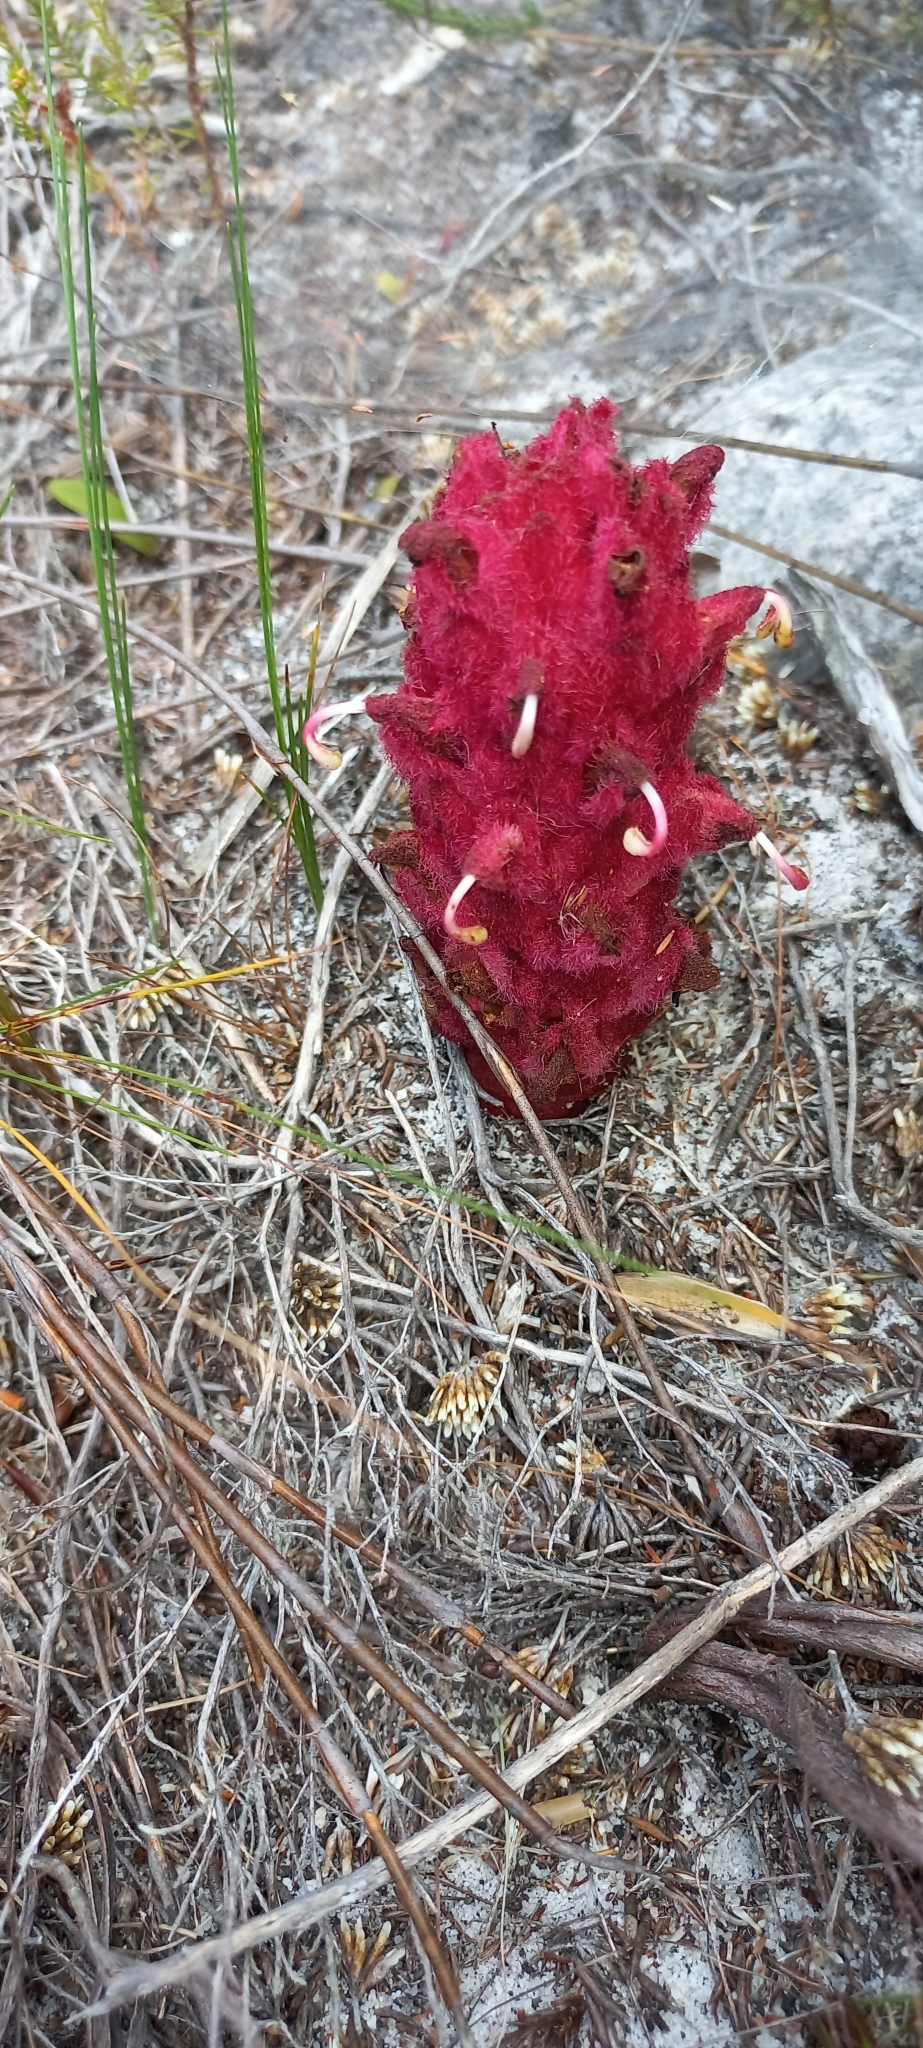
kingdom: Plantae
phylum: Tracheophyta
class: Magnoliopsida
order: Lamiales
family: Orobanchaceae
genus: Hyobanche
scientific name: Hyobanche sanguinea
